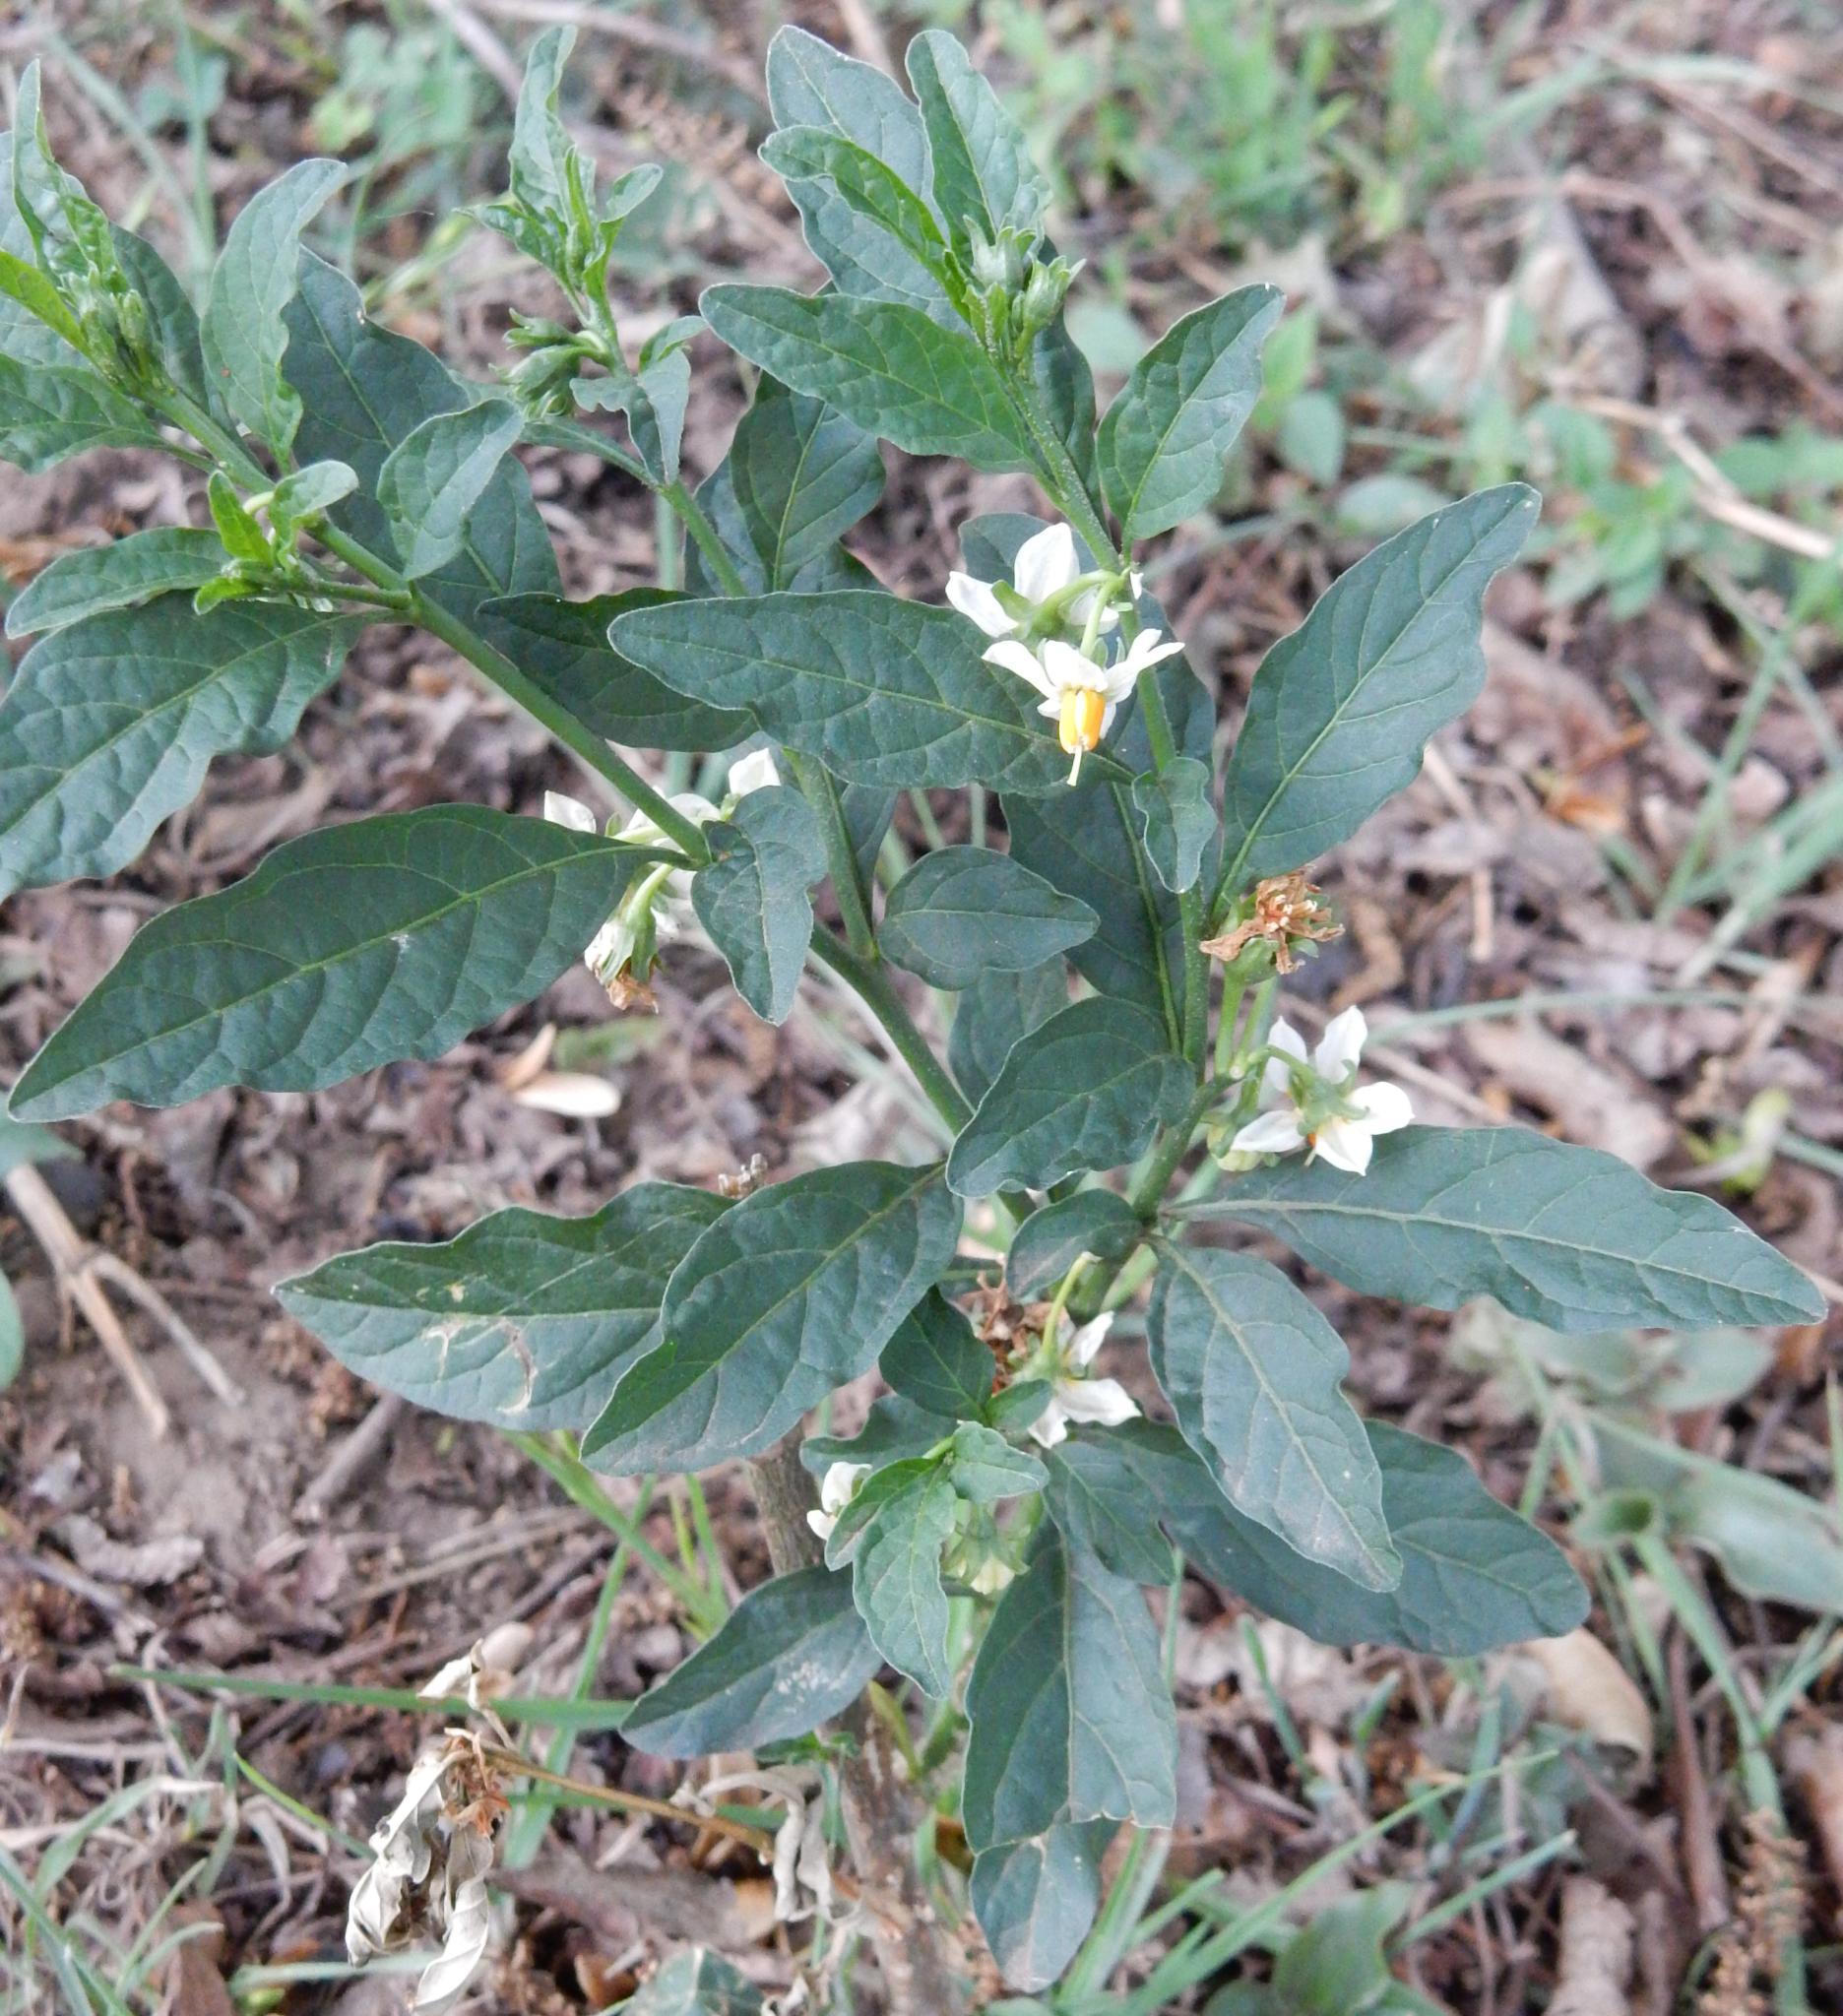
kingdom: Plantae
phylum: Tracheophyta
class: Magnoliopsida
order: Solanales
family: Solanaceae
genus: Solanum
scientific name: Solanum pseudocapsicum
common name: Jerusalem cherry
